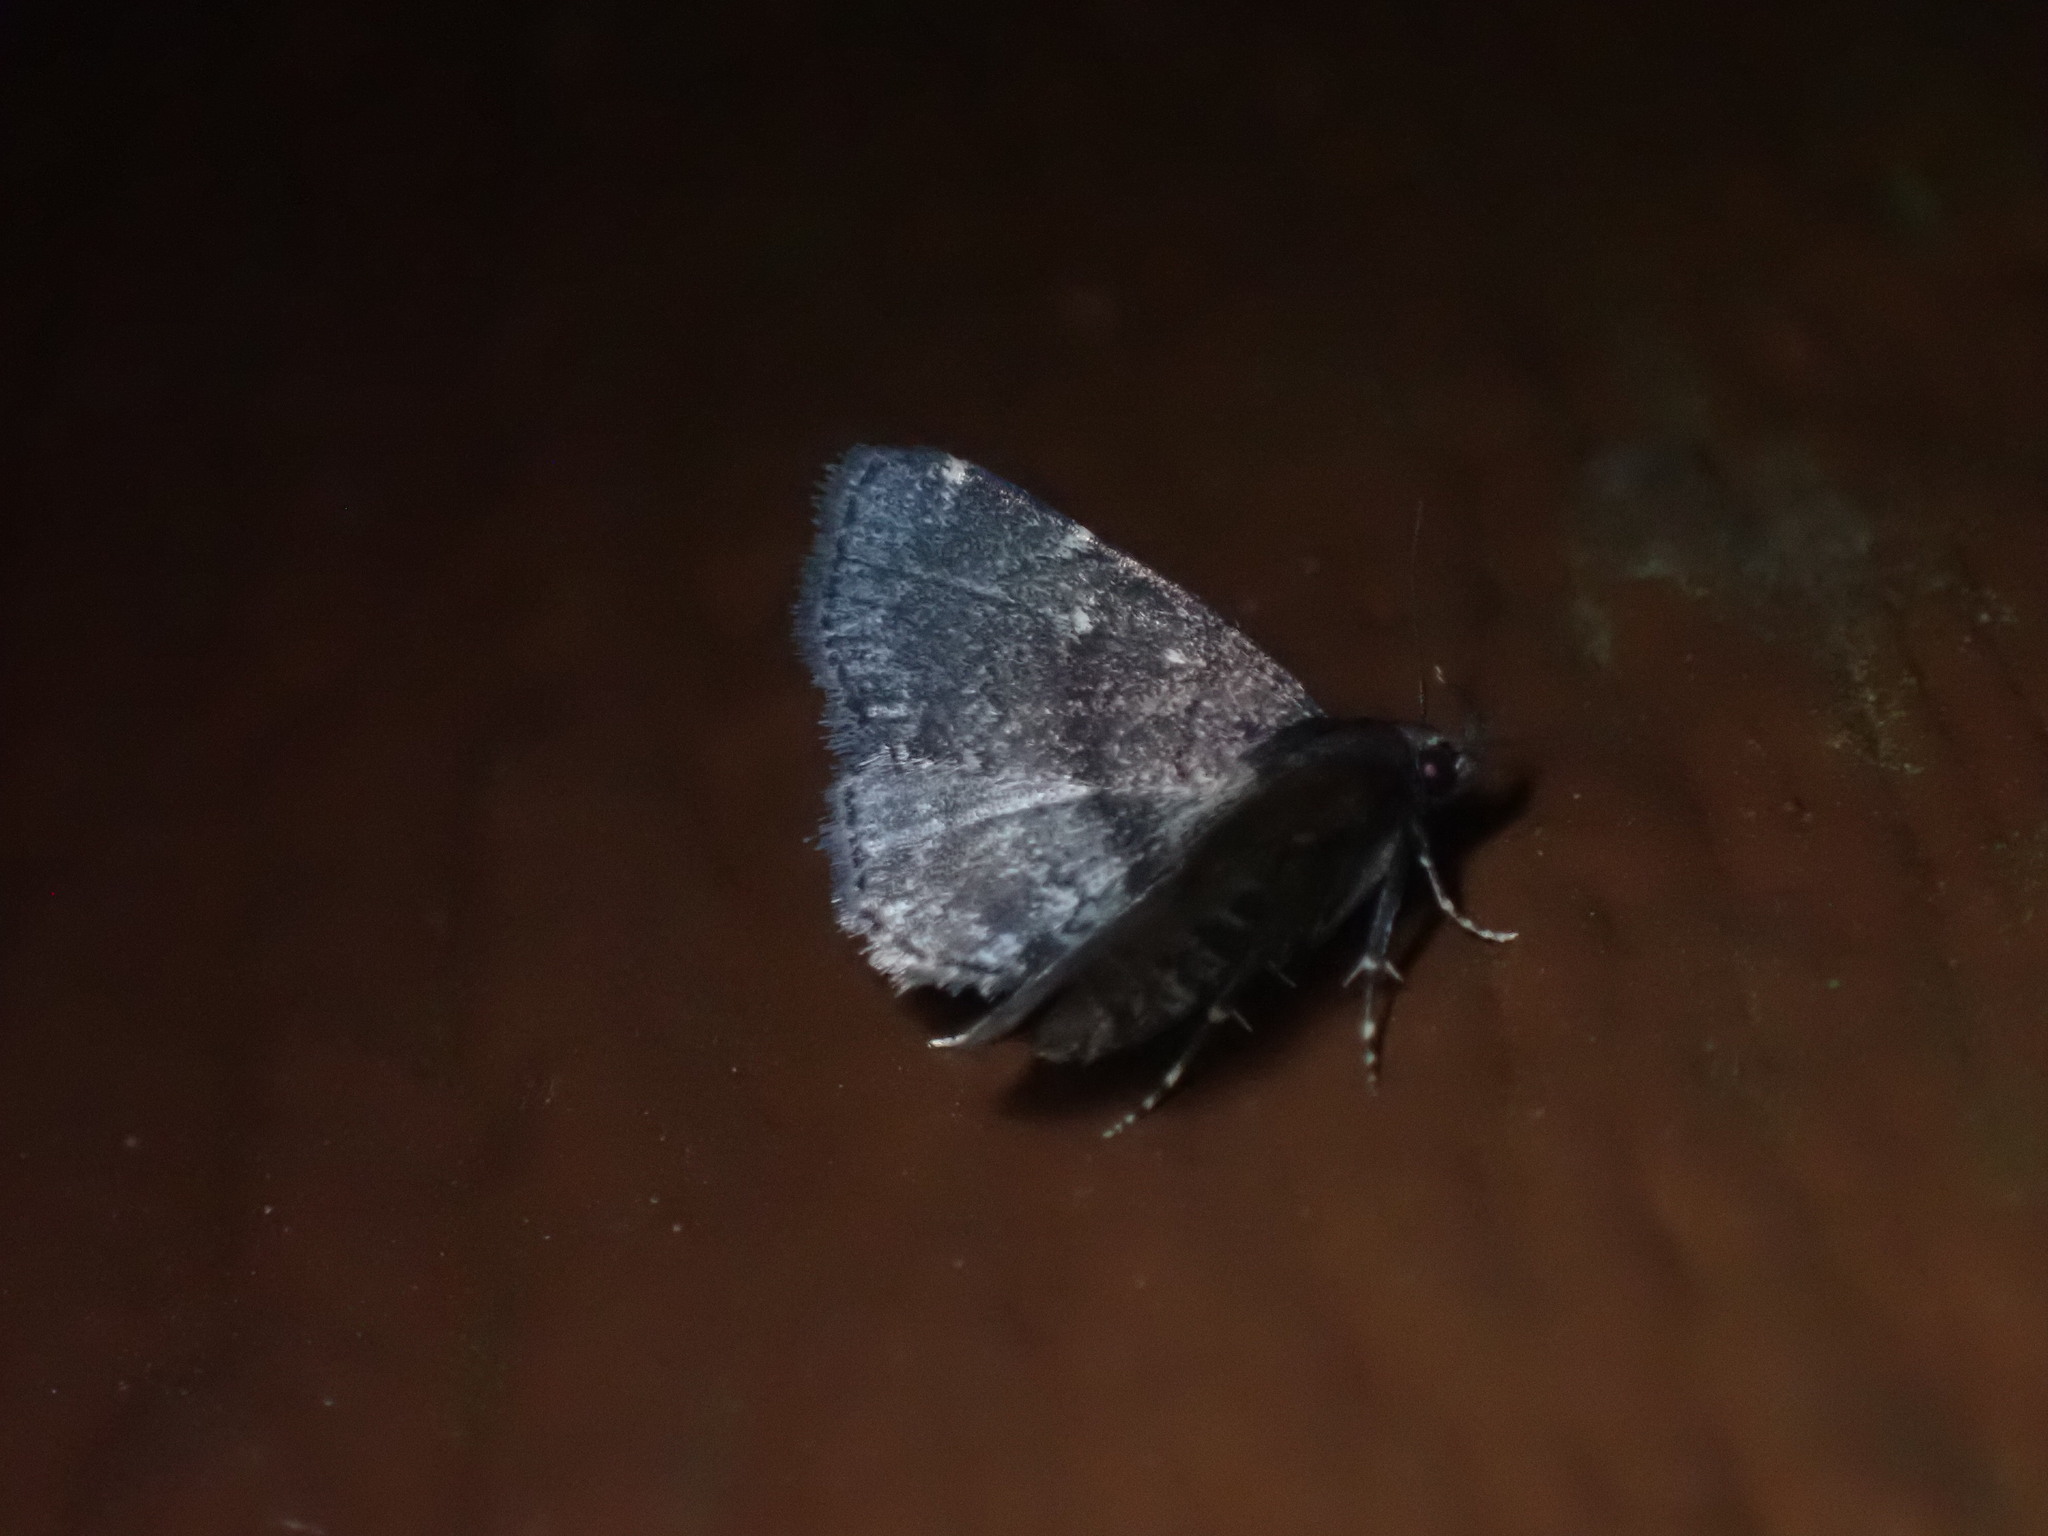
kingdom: Animalia
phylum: Arthropoda
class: Insecta
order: Lepidoptera
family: Erebidae
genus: Idia
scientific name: Idia forbesii
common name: Forbes' idia moth
